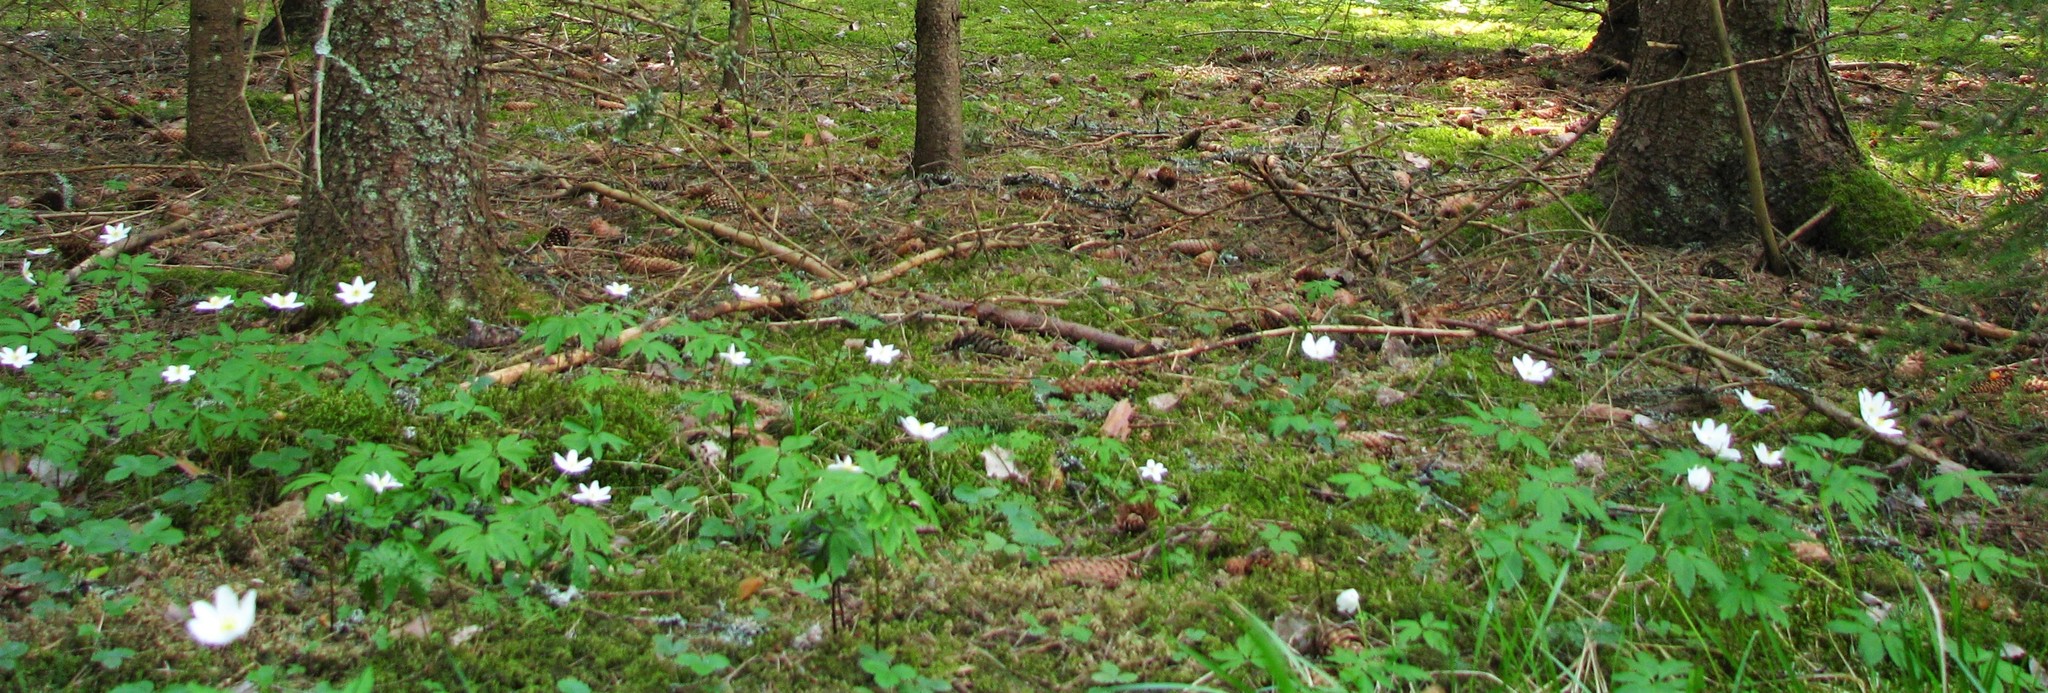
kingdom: Plantae
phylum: Tracheophyta
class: Magnoliopsida
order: Ranunculales
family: Ranunculaceae
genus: Anemone
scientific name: Anemone nemorosa
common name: Wood anemone
